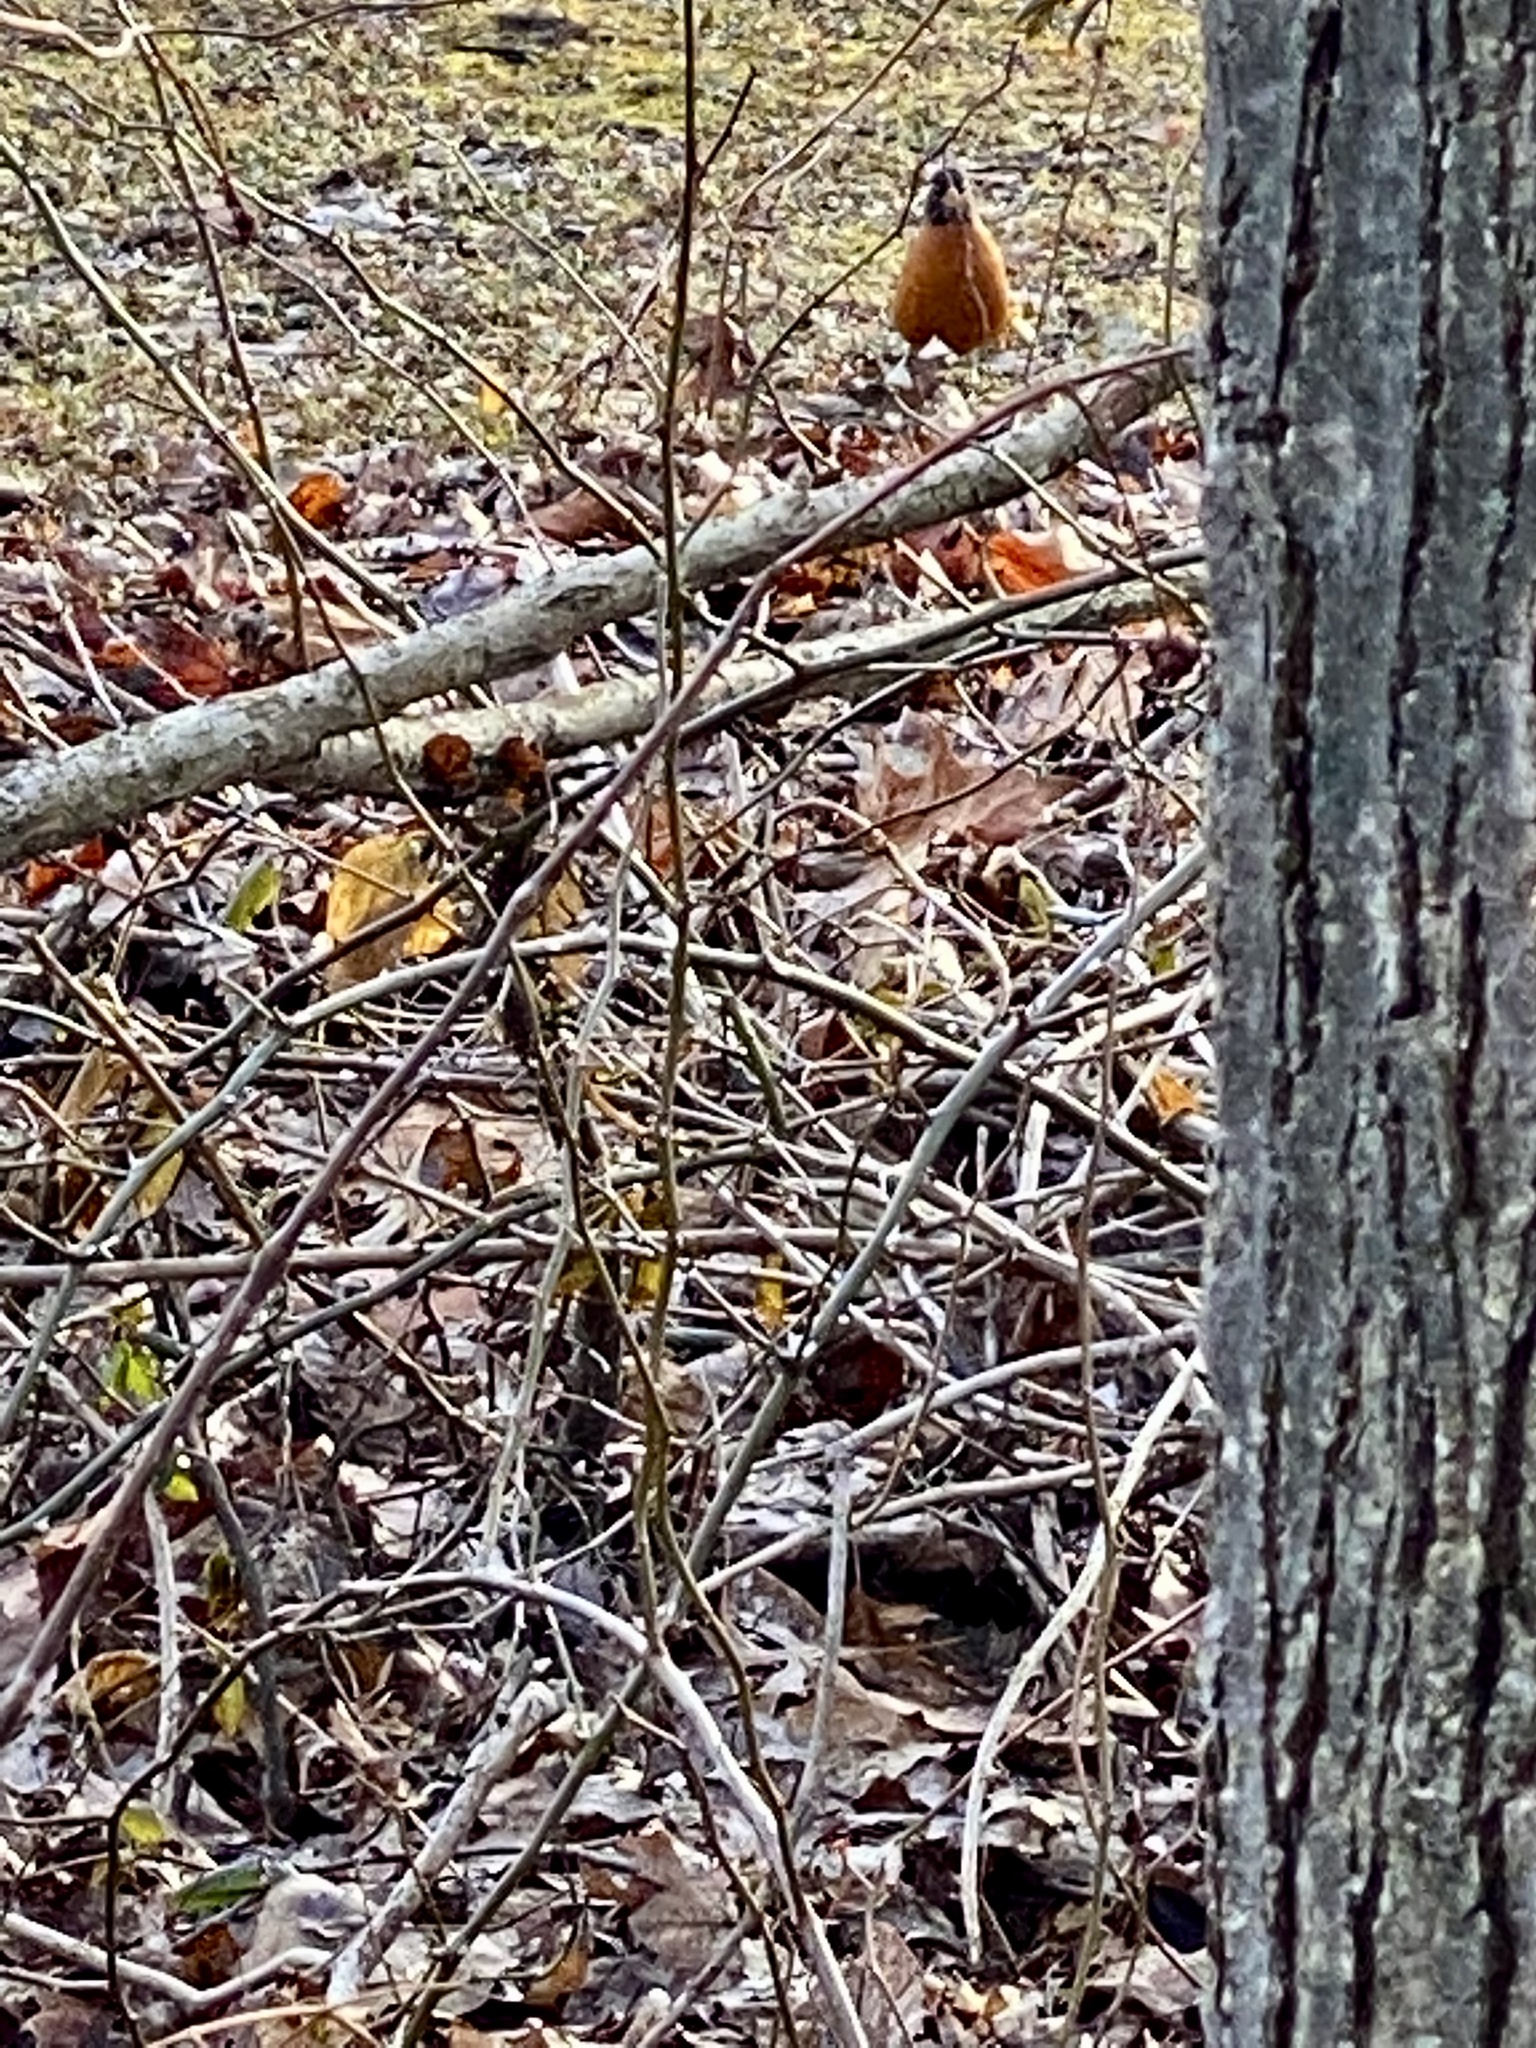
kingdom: Animalia
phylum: Chordata
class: Aves
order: Passeriformes
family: Turdidae
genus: Turdus
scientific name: Turdus migratorius
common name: American robin
